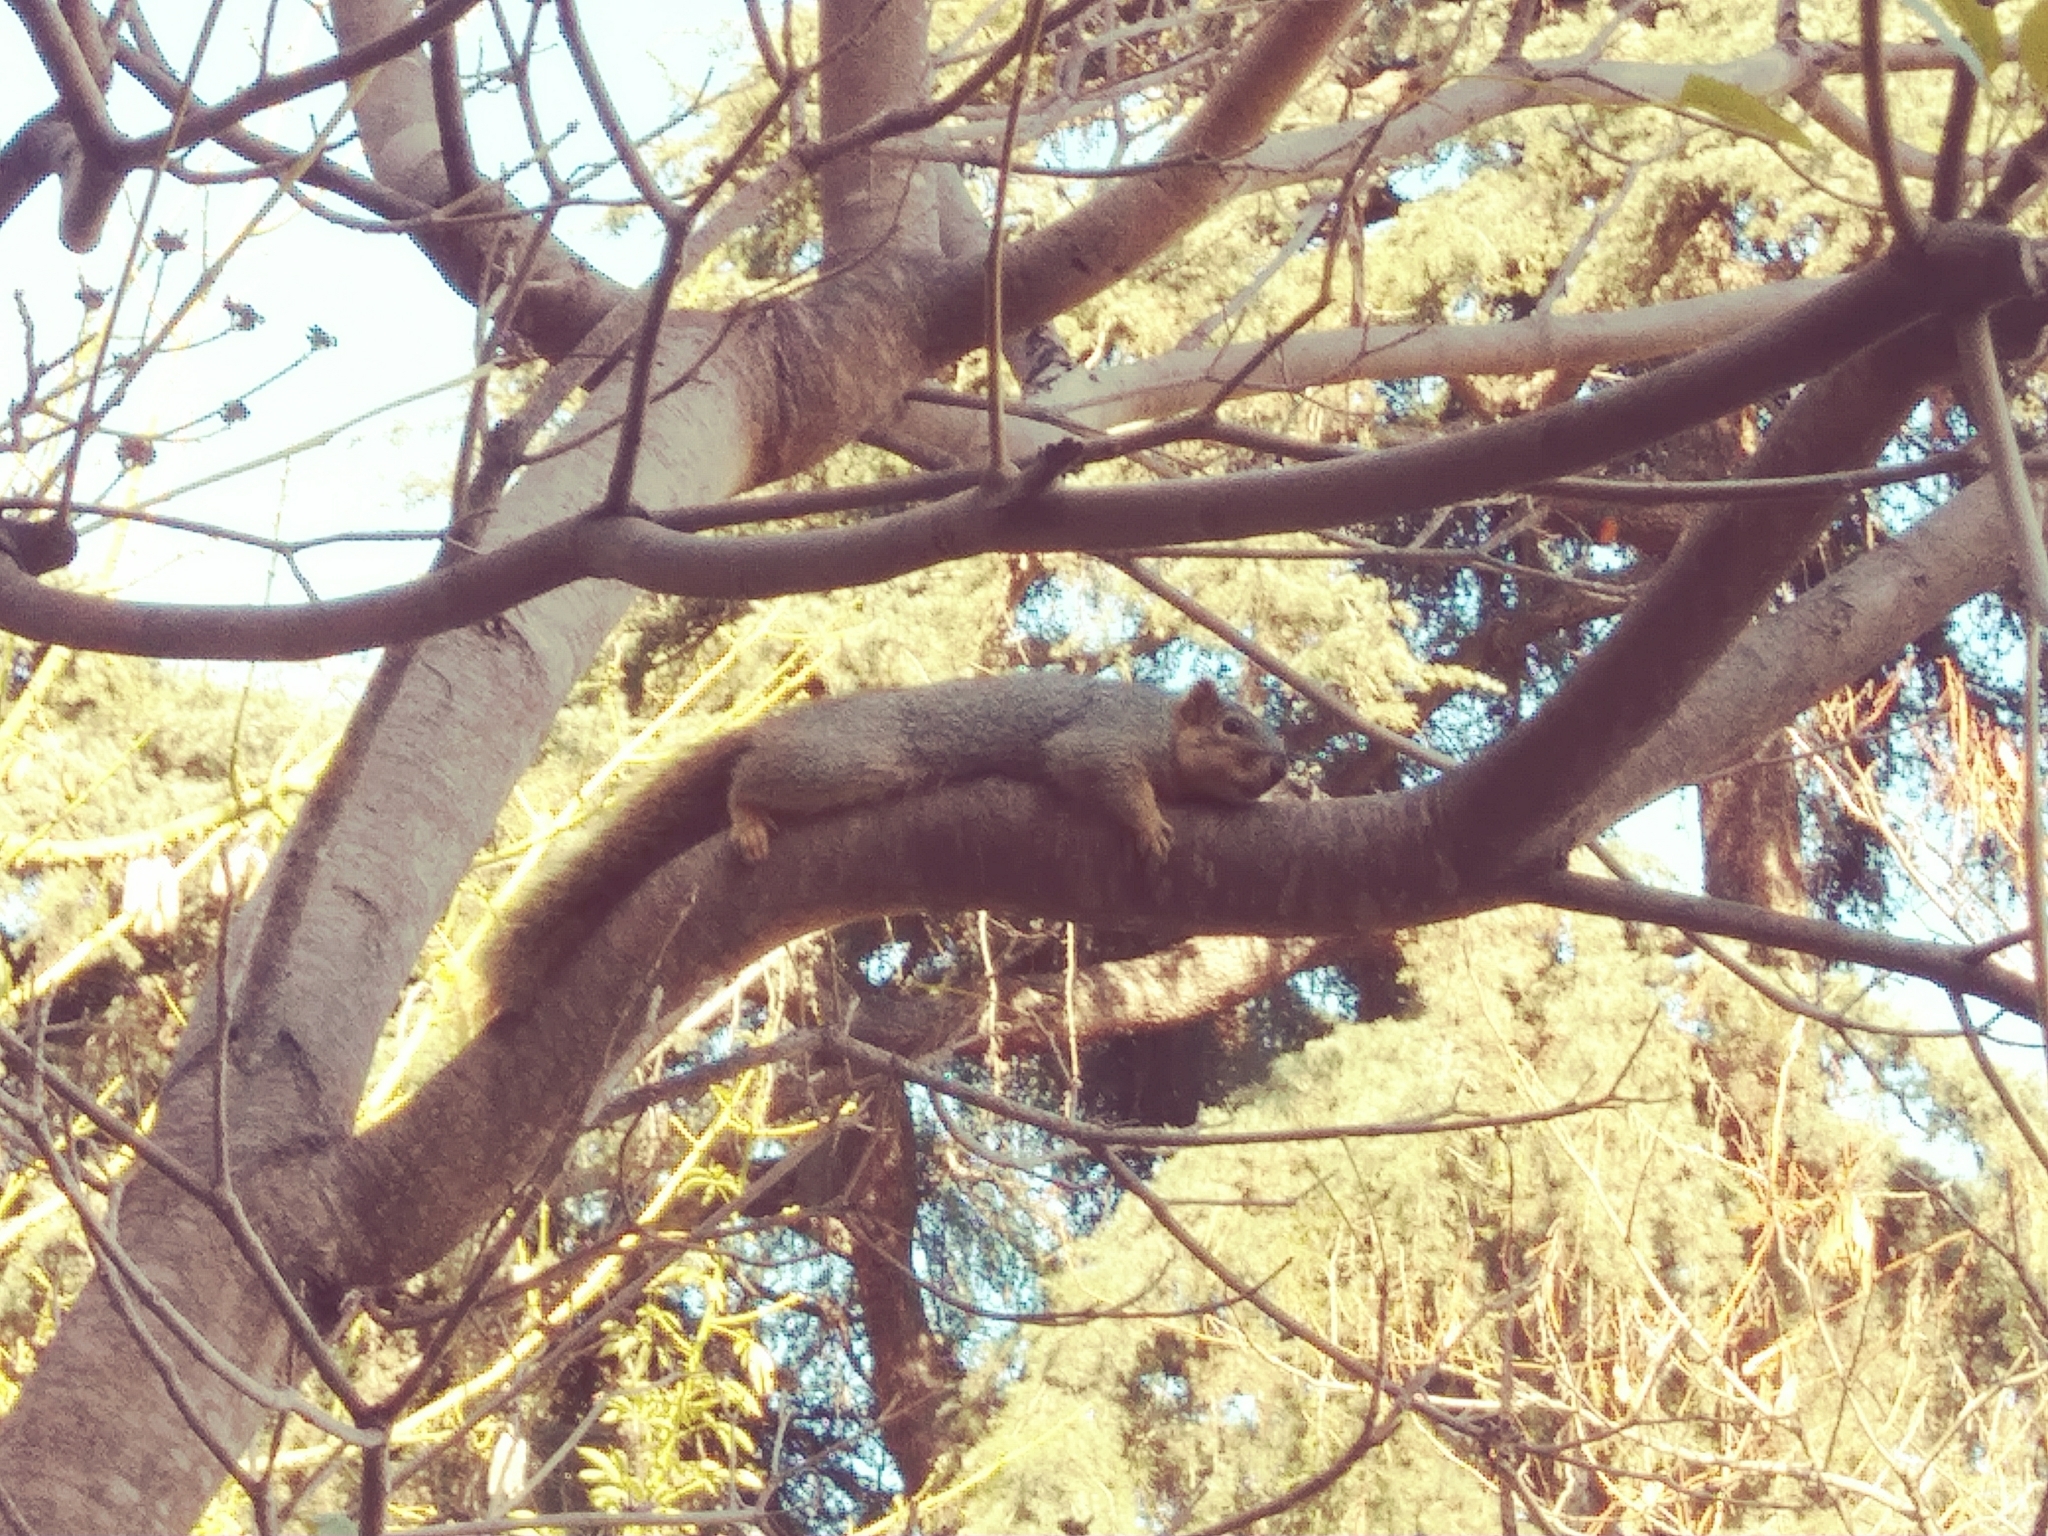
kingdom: Animalia
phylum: Chordata
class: Mammalia
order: Rodentia
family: Sciuridae
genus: Sciurus
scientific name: Sciurus niger
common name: Fox squirrel
